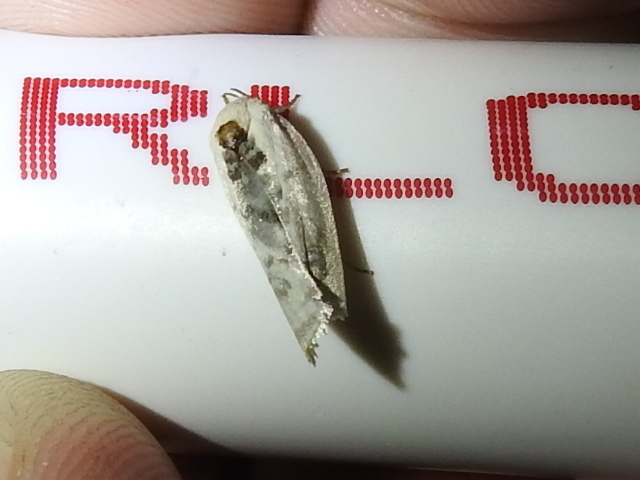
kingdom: Animalia
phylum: Arthropoda
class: Insecta
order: Lepidoptera
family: Depressariidae
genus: Antaeotricha
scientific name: Antaeotricha schlaegeri
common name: Schlaeger's fruitworm moth
